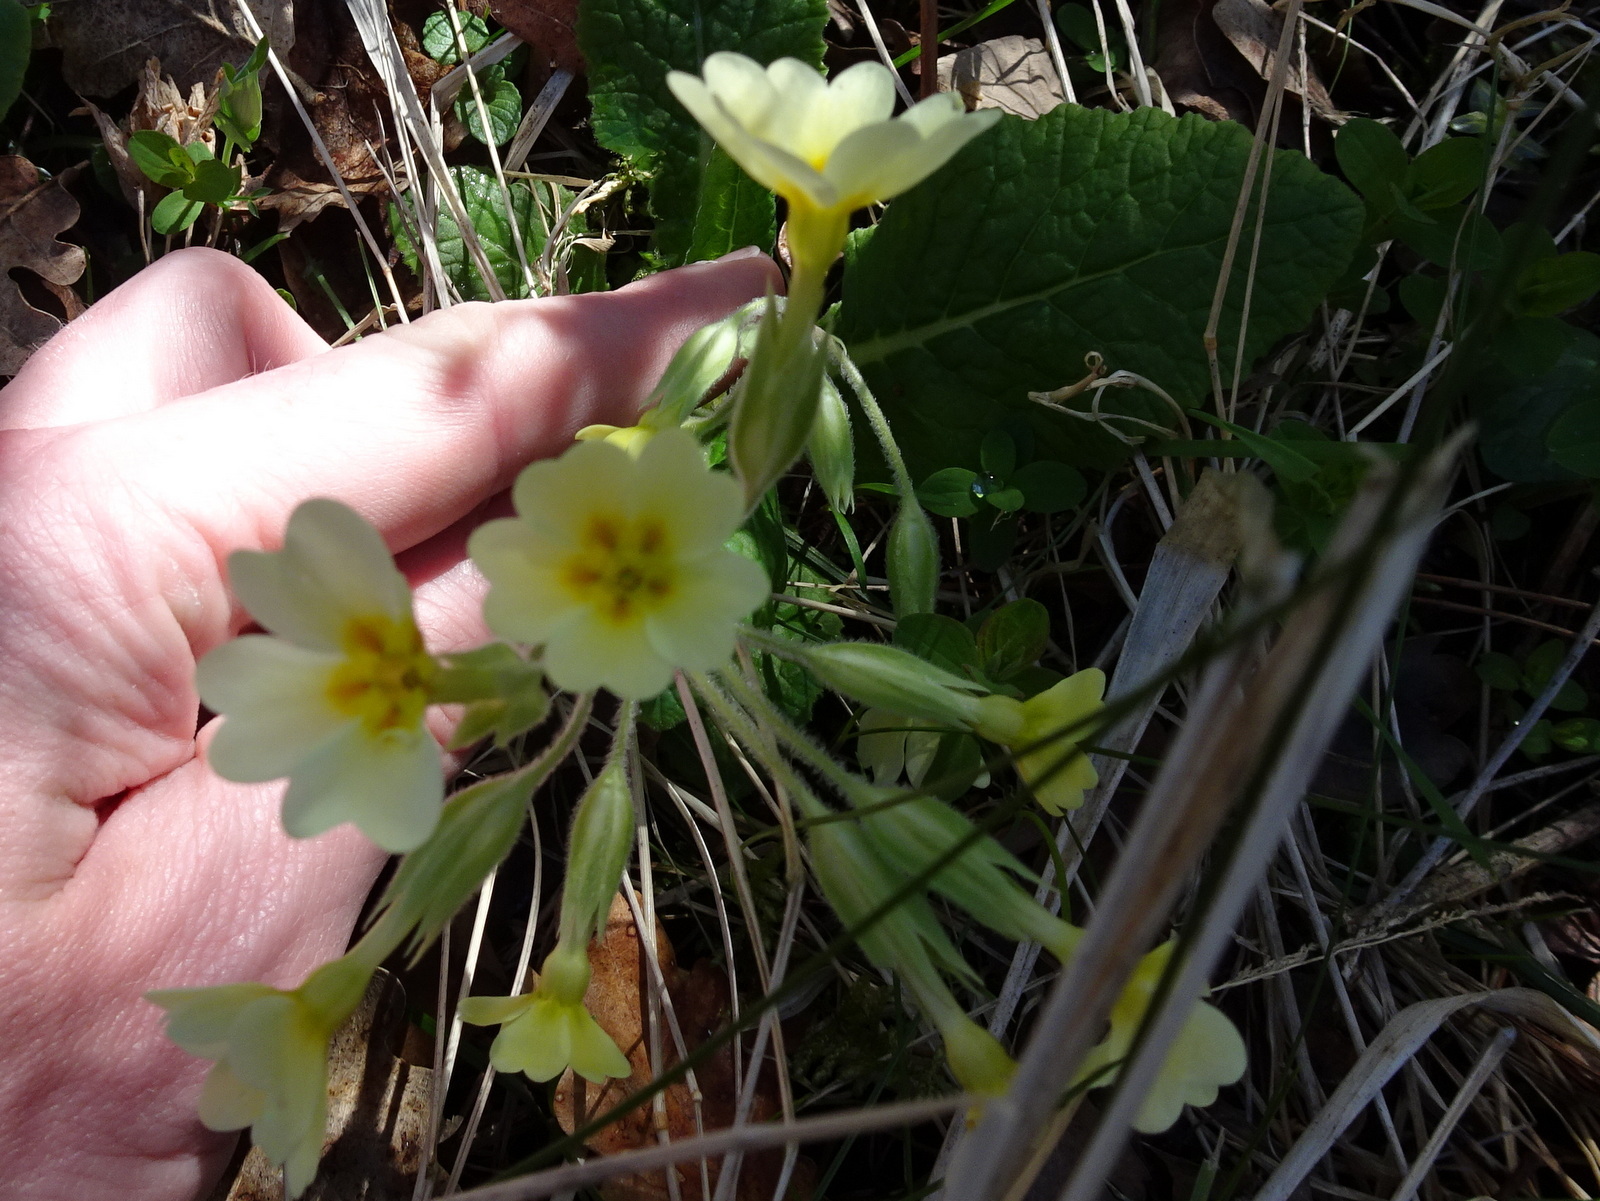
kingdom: Plantae
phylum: Tracheophyta
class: Magnoliopsida
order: Ericales
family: Primulaceae
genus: Primula
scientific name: Primula elatior
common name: Oxlip
